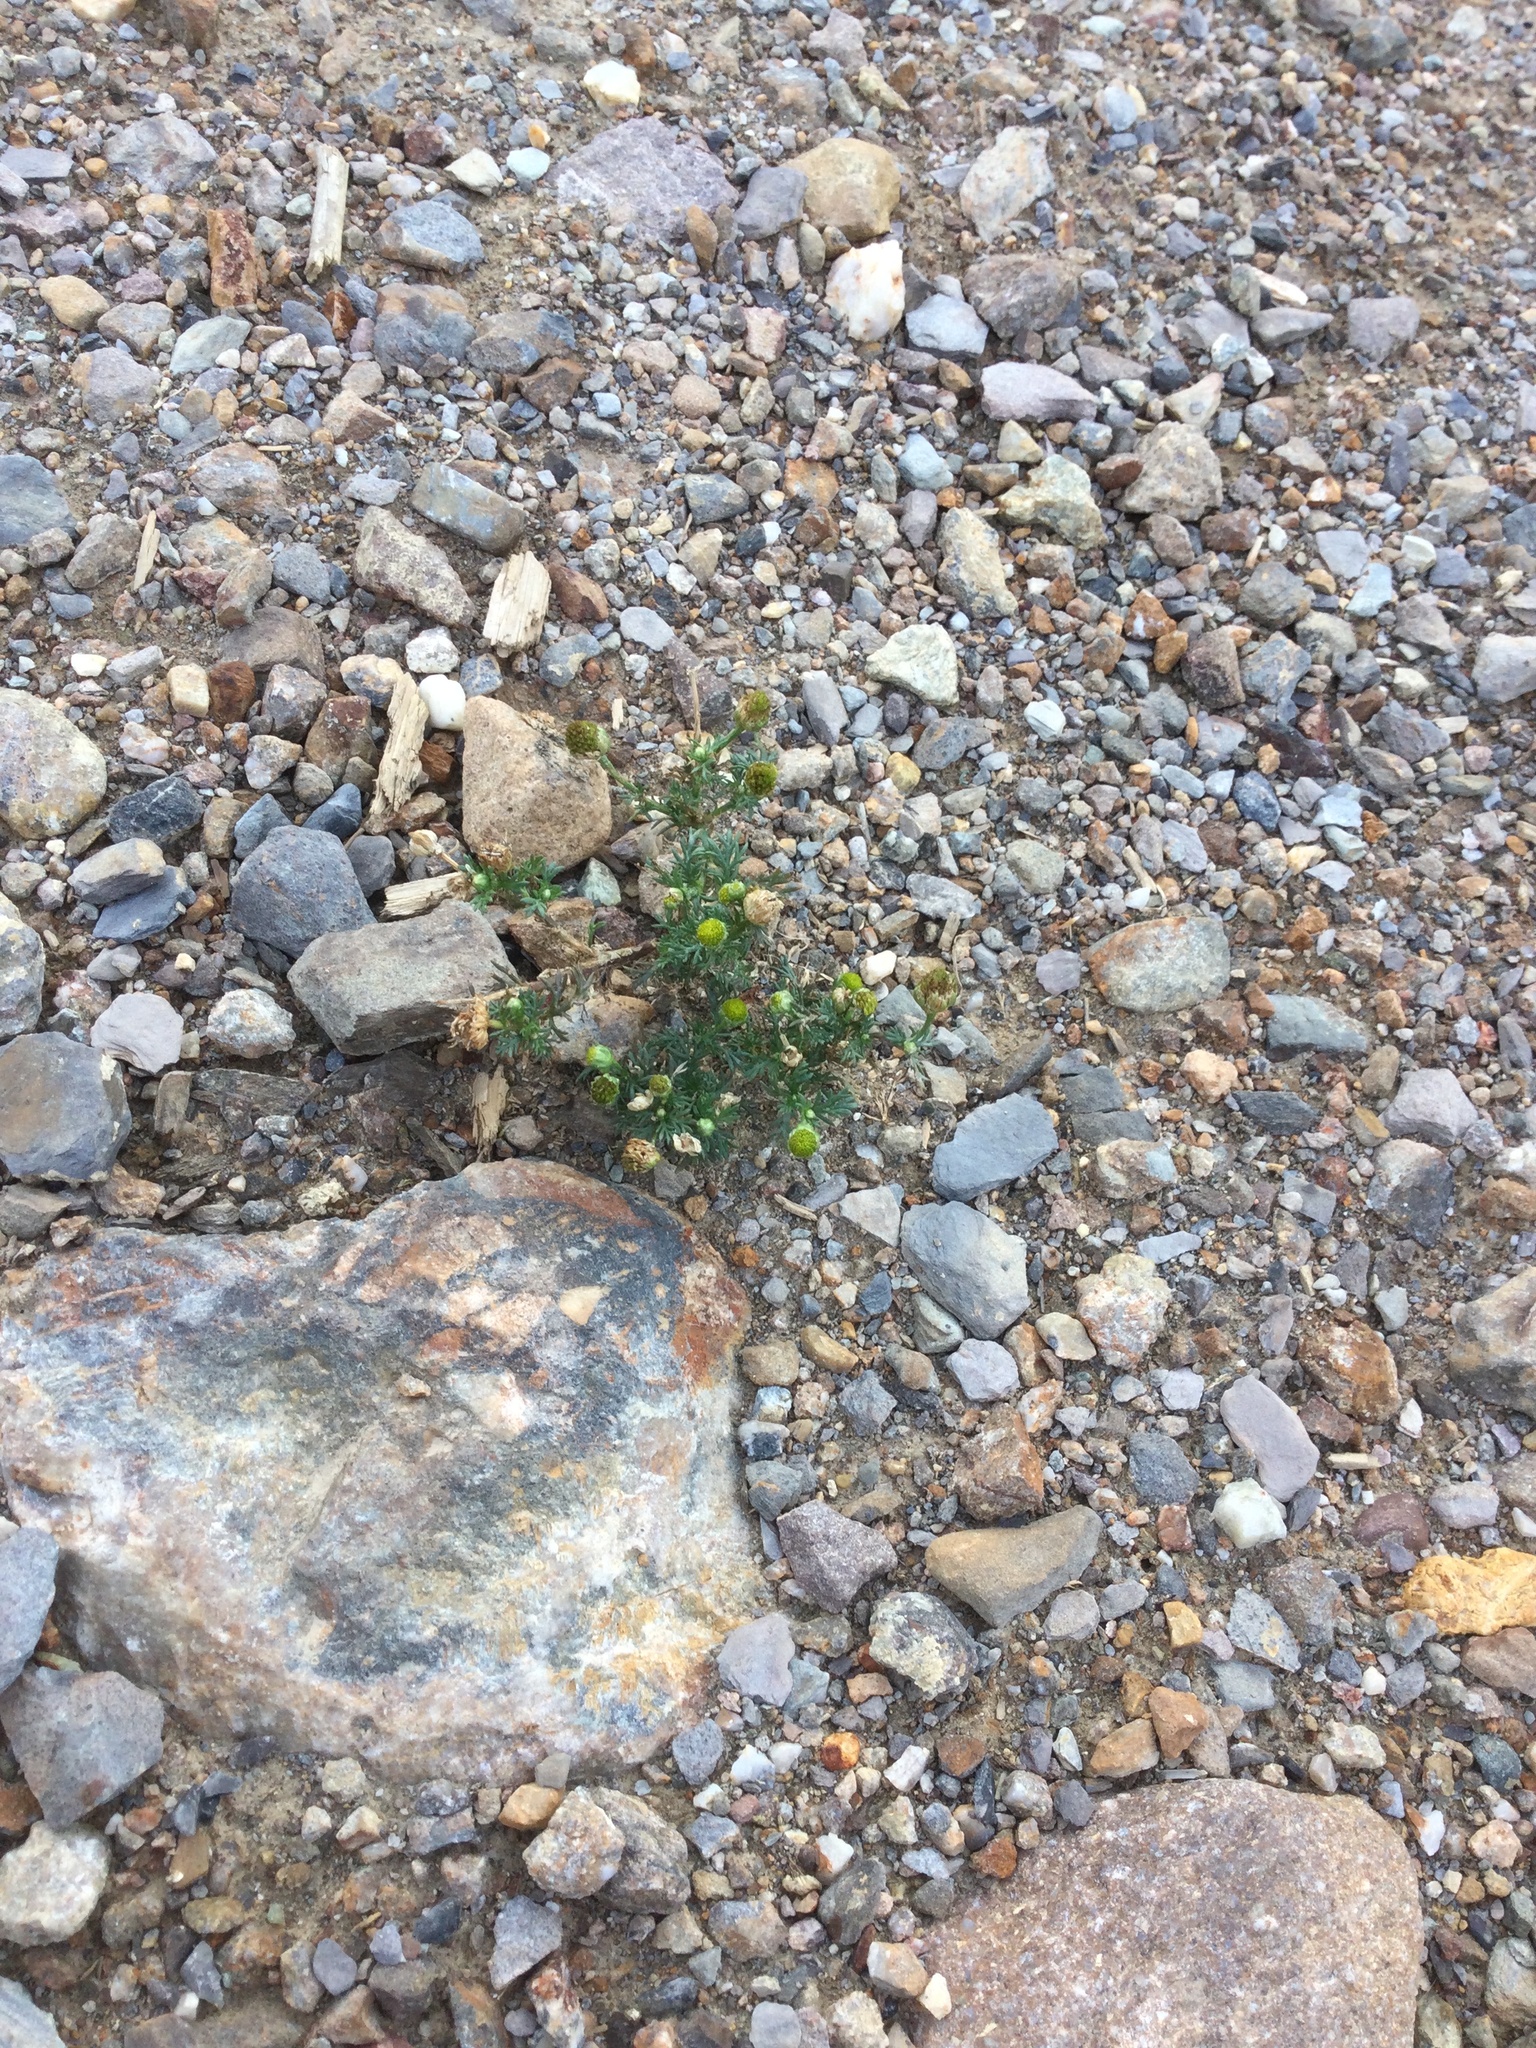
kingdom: Plantae
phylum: Tracheophyta
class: Magnoliopsida
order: Asterales
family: Asteraceae
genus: Matricaria
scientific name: Matricaria discoidea
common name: Disc mayweed
